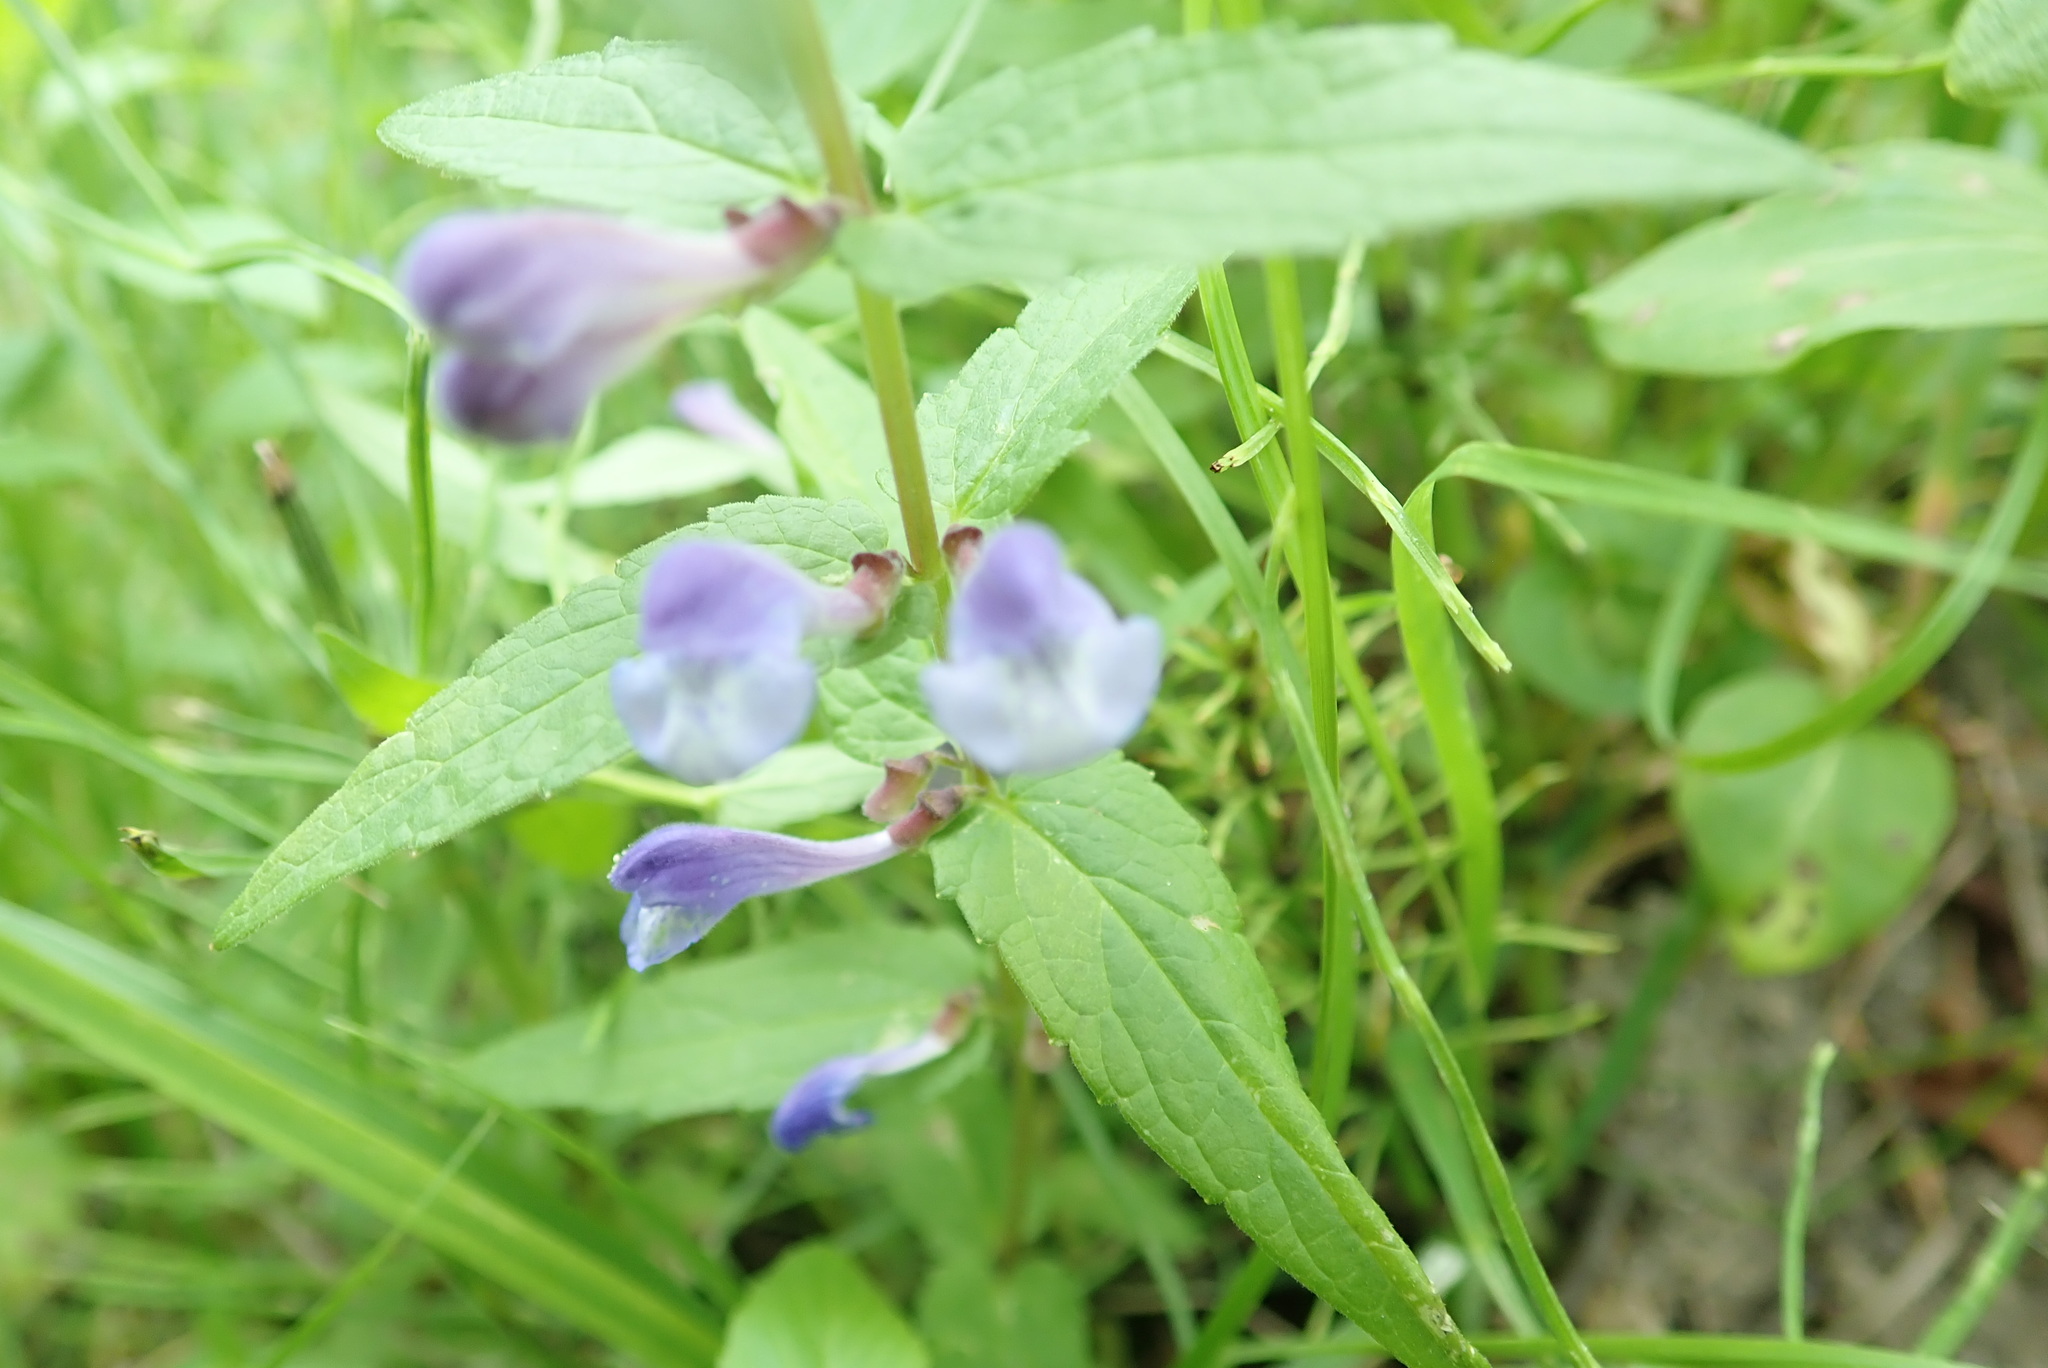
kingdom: Plantae
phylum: Tracheophyta
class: Magnoliopsida
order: Lamiales
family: Lamiaceae
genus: Scutellaria
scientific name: Scutellaria galericulata
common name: Skullcap
